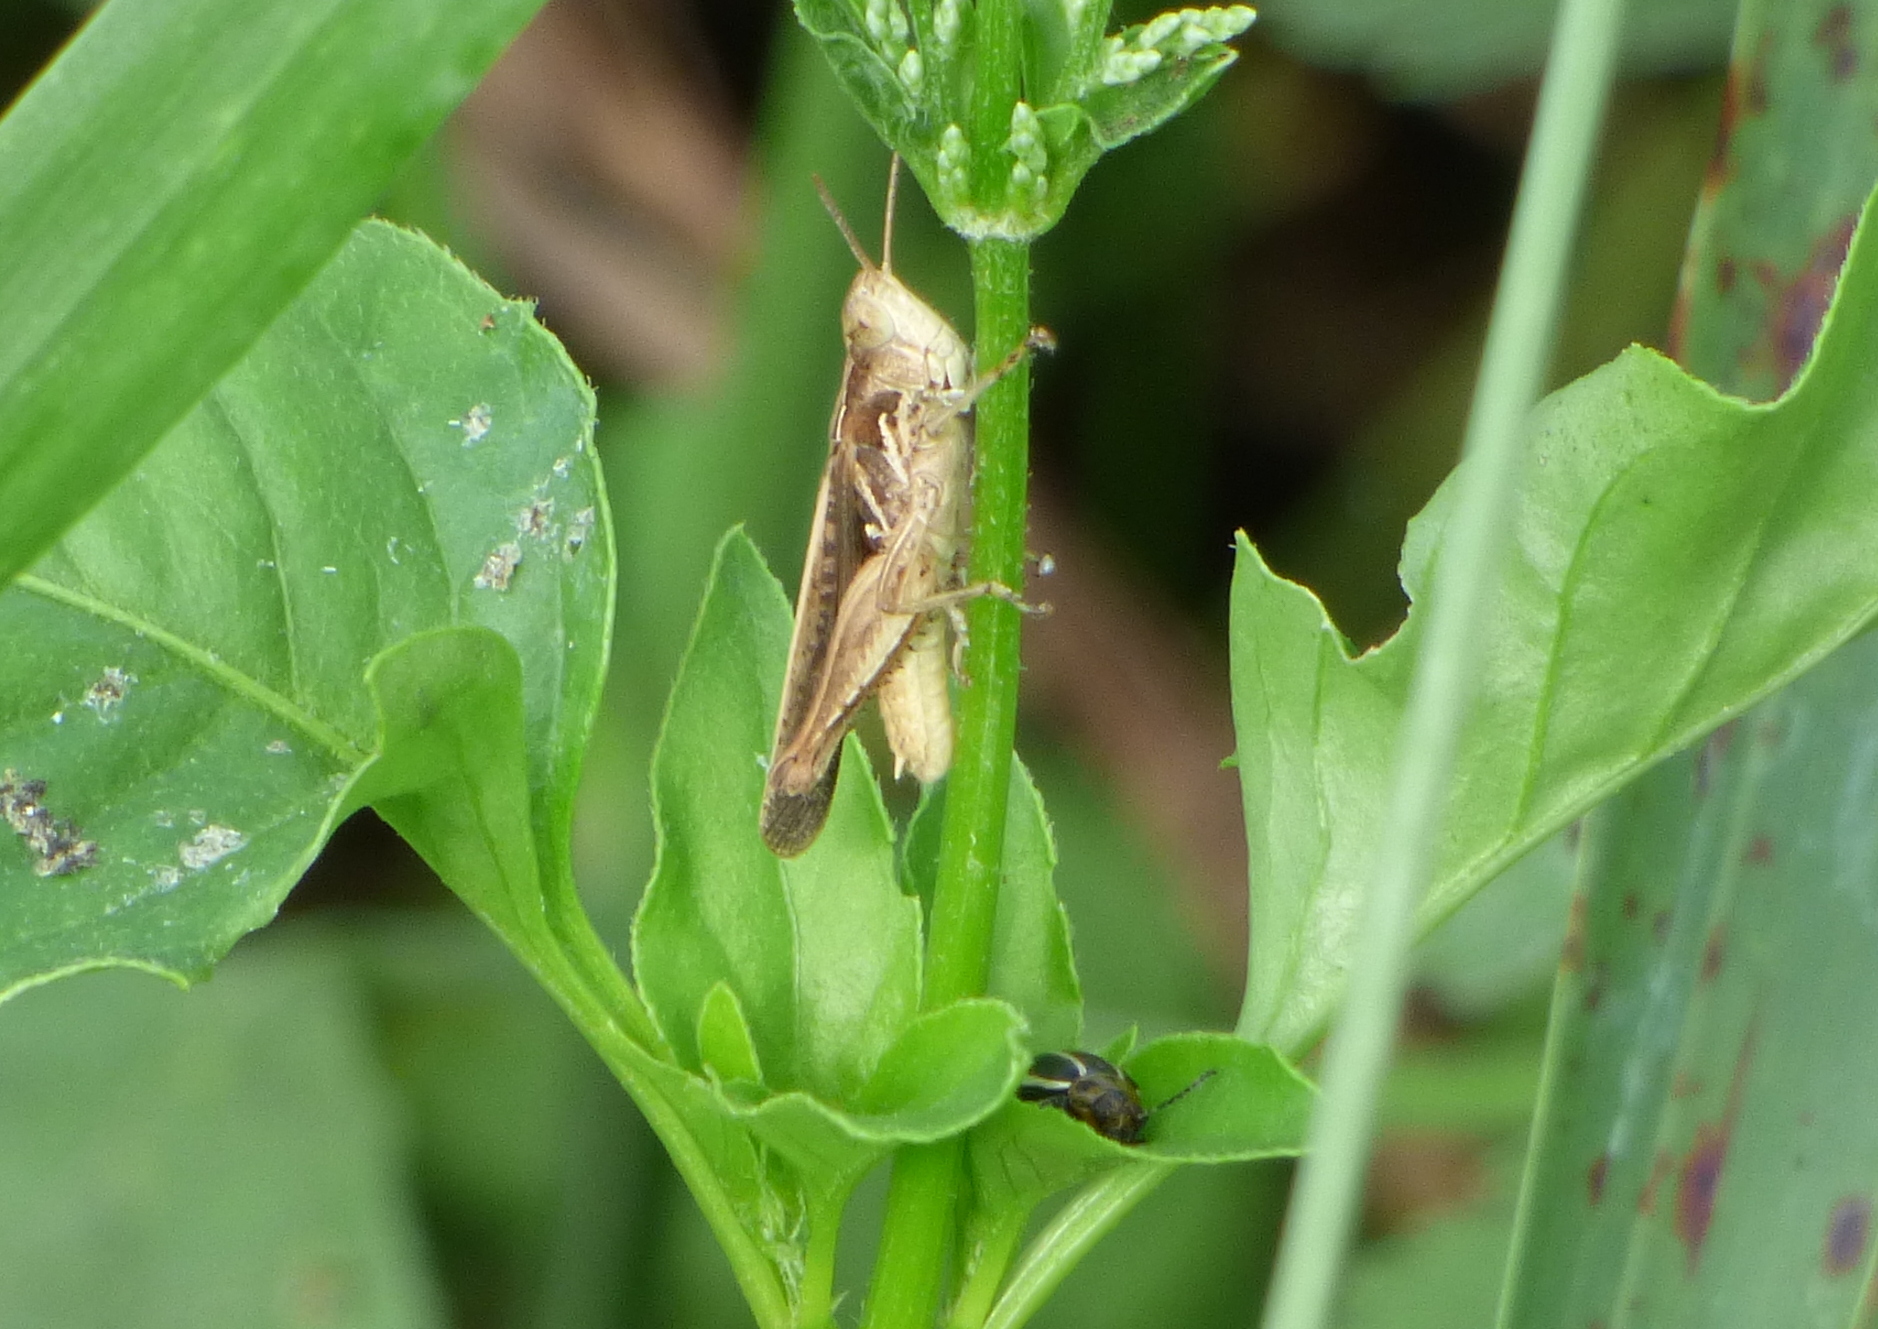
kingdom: Animalia
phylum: Arthropoda
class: Insecta
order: Orthoptera
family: Acrididae
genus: Orphulella
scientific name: Orphulella punctata
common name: Slant-faced grasshopper
